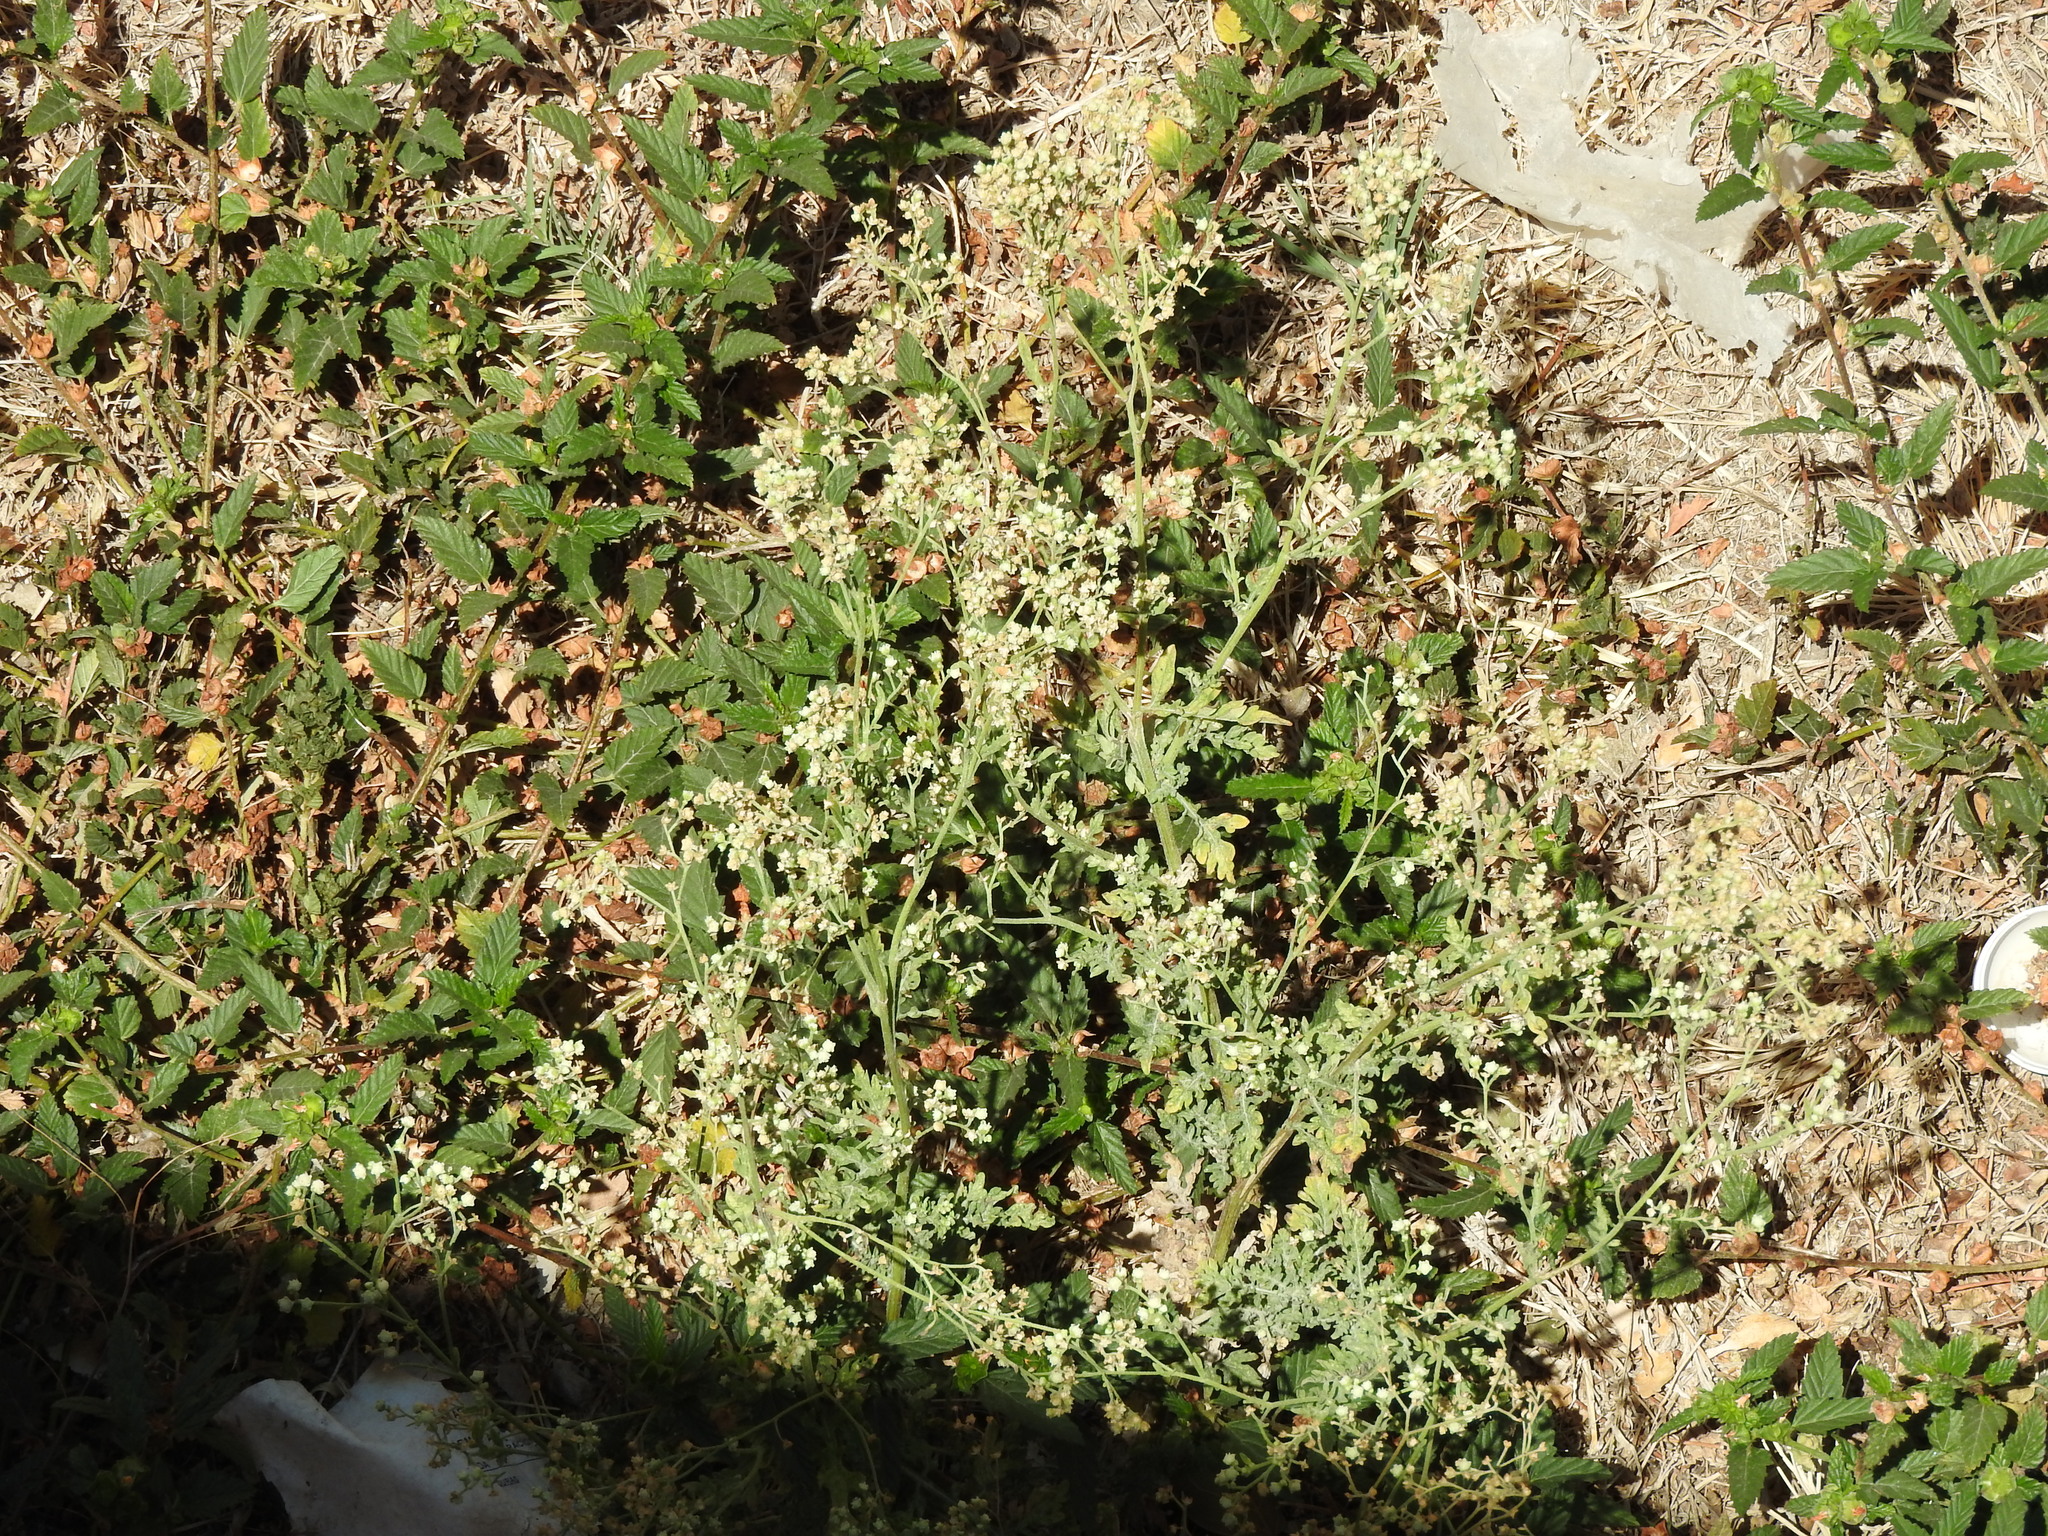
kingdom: Plantae
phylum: Tracheophyta
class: Magnoliopsida
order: Asterales
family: Asteraceae
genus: Parthenium
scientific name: Parthenium hysterophorus
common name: Santa maria feverfew
